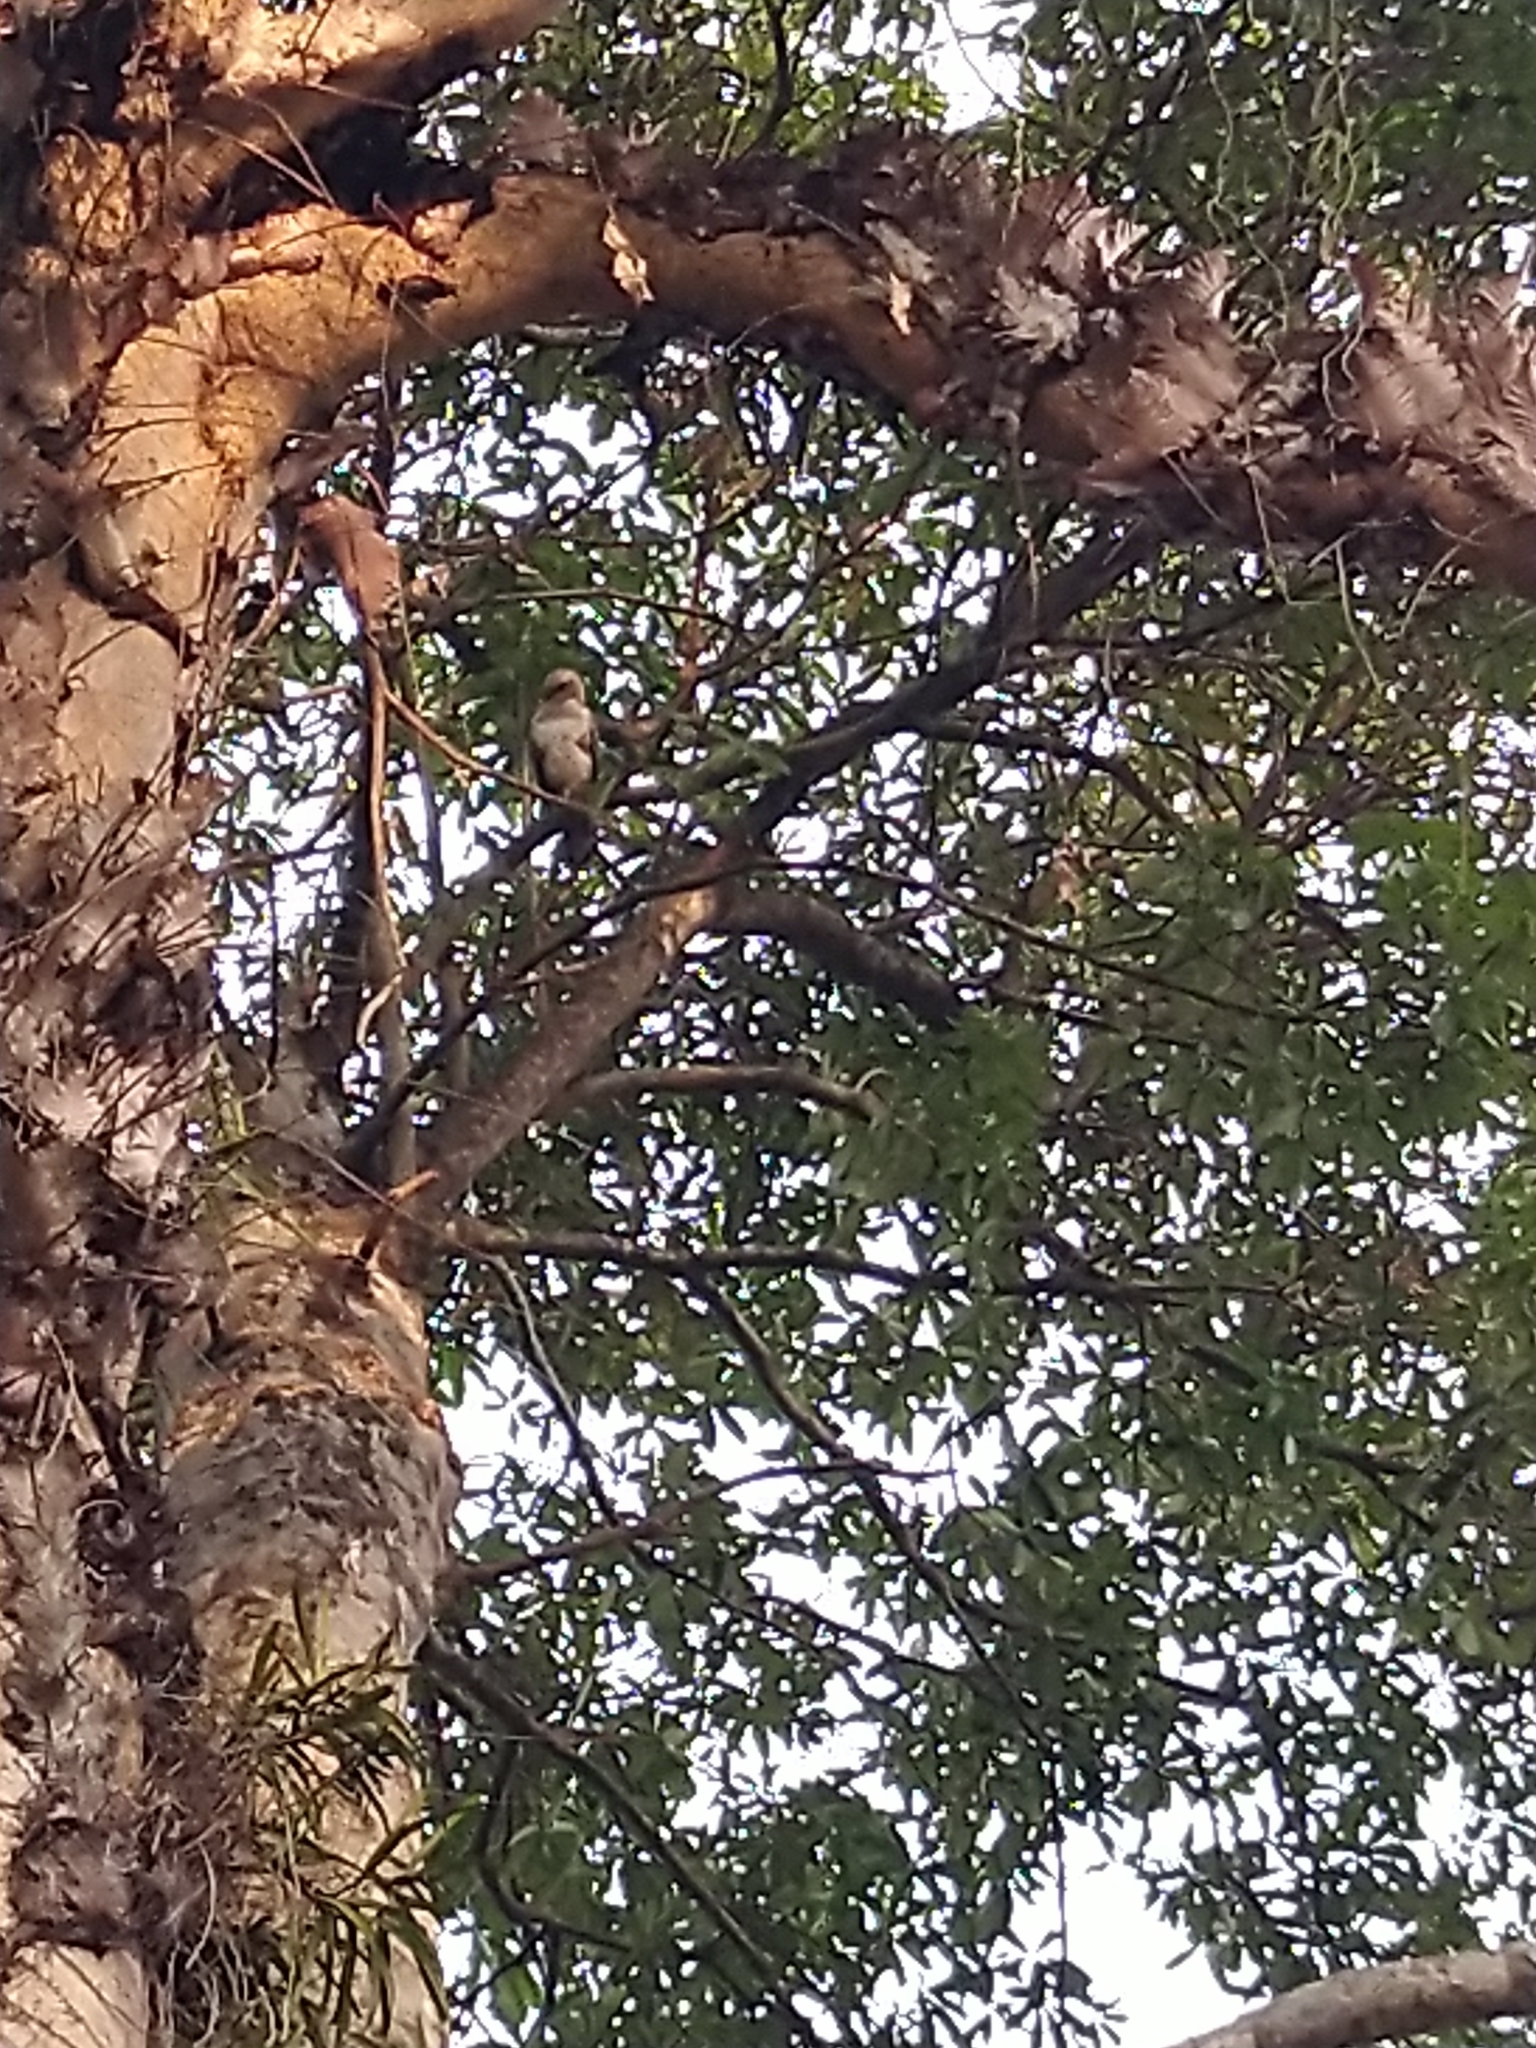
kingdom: Animalia
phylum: Chordata
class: Aves
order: Accipitriformes
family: Accipitridae
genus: Nisaetus
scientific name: Nisaetus cirrhatus
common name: Changeable hawk-eagle
